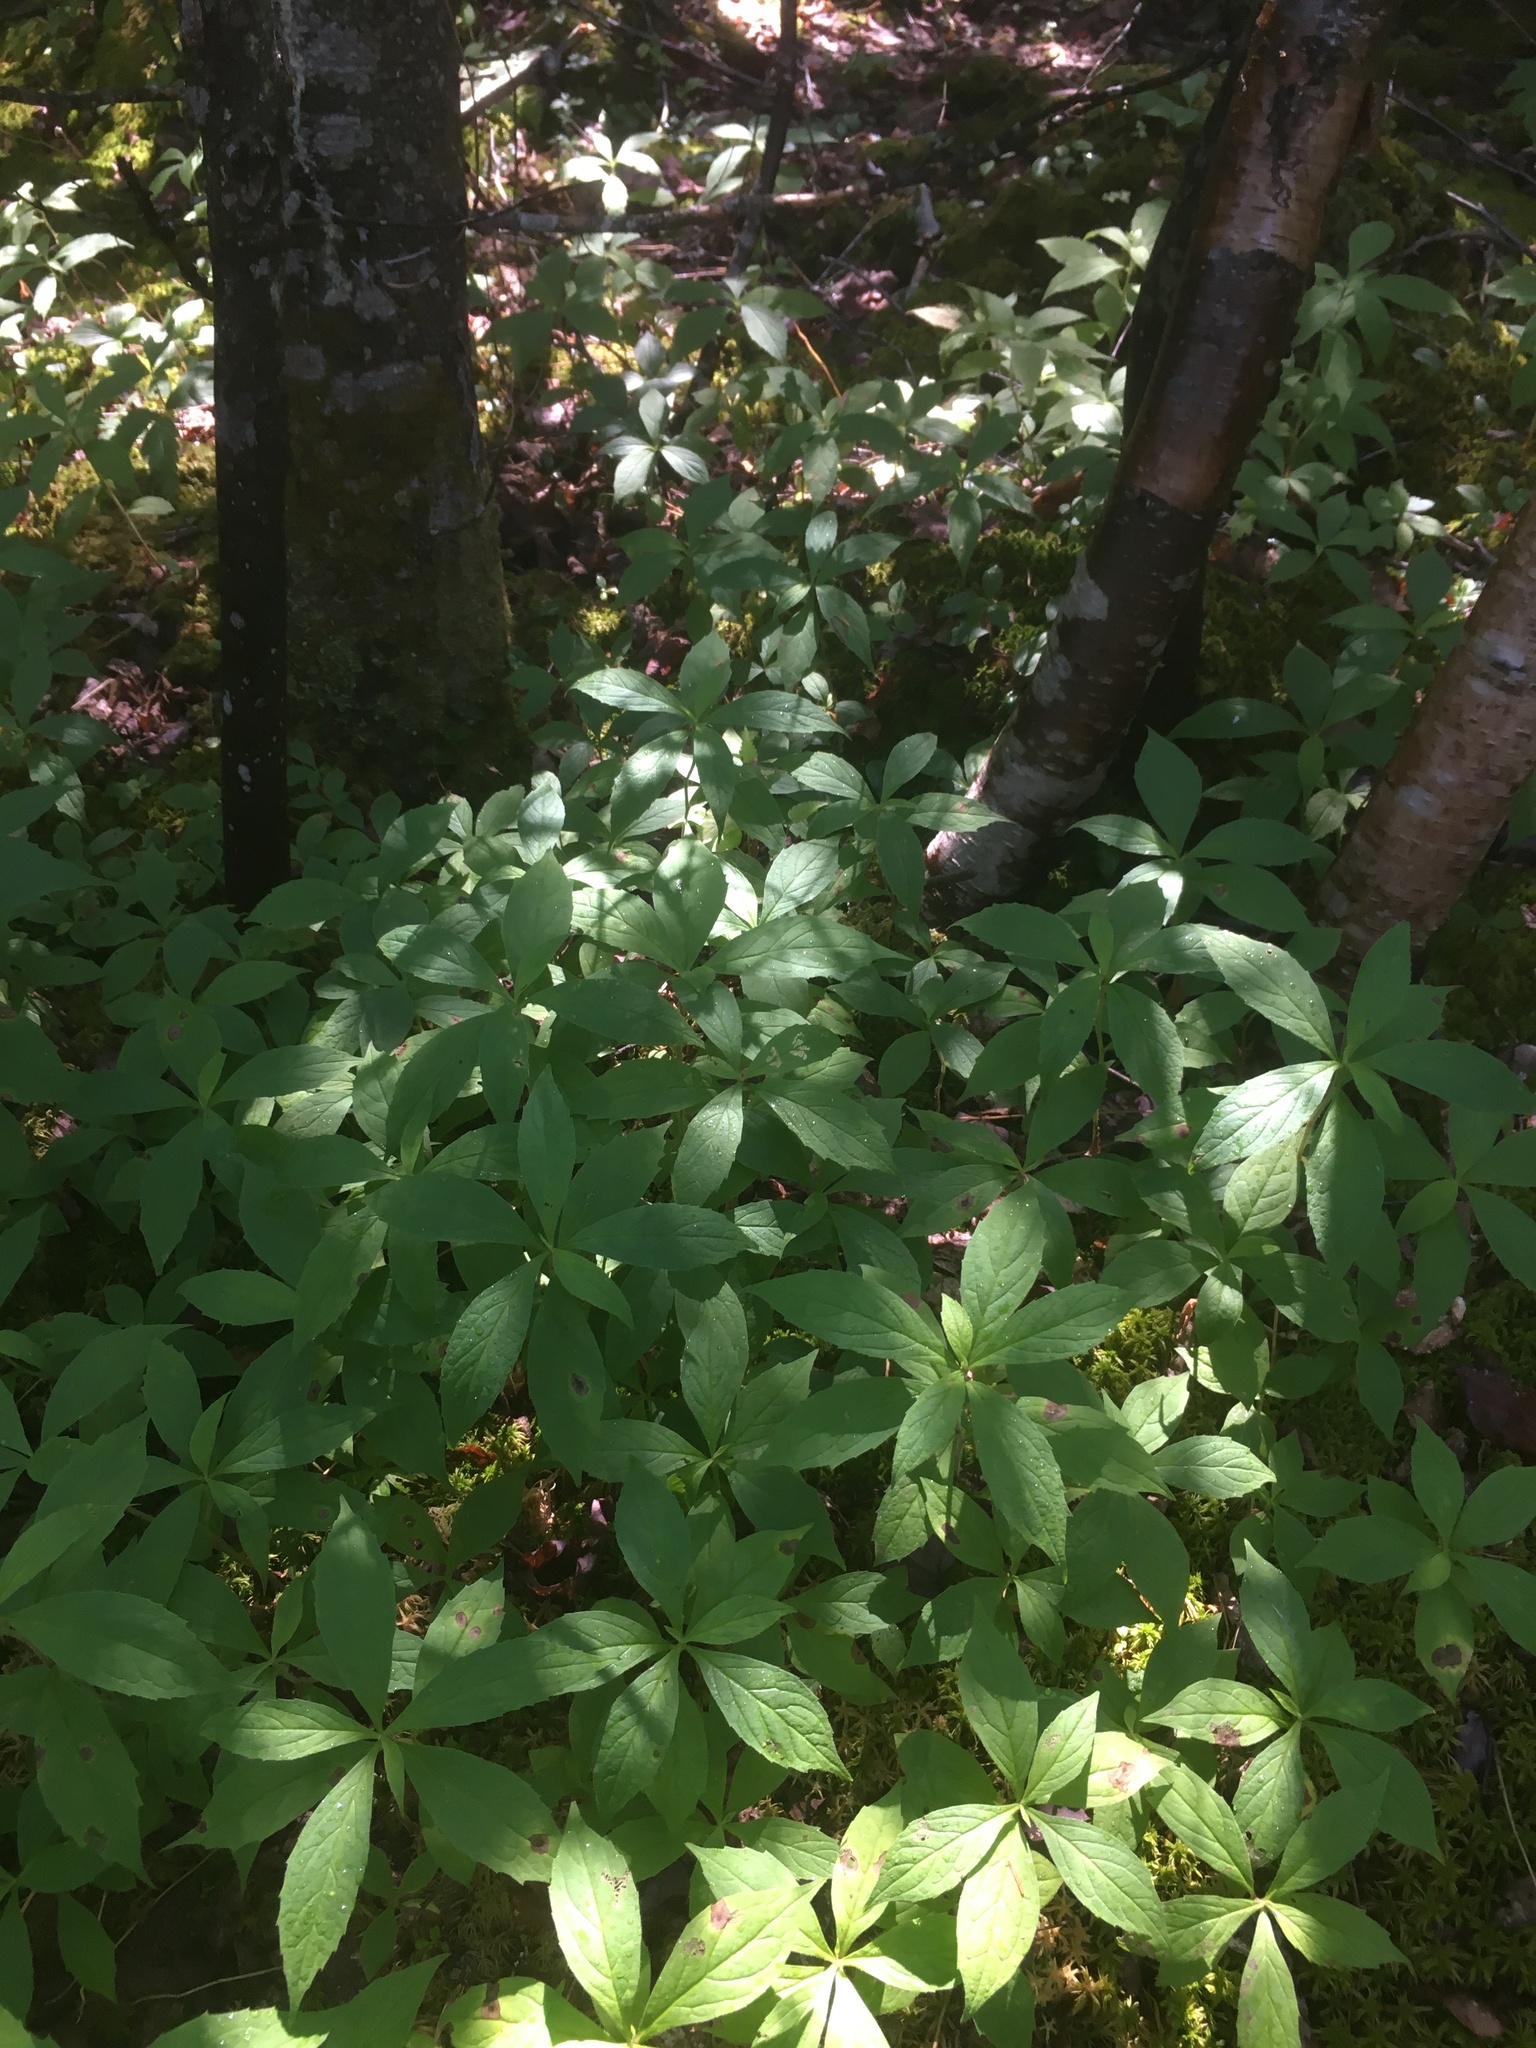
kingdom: Plantae
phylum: Tracheophyta
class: Magnoliopsida
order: Asterales
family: Asteraceae
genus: Oclemena
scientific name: Oclemena acuminata
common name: Mountain aster
